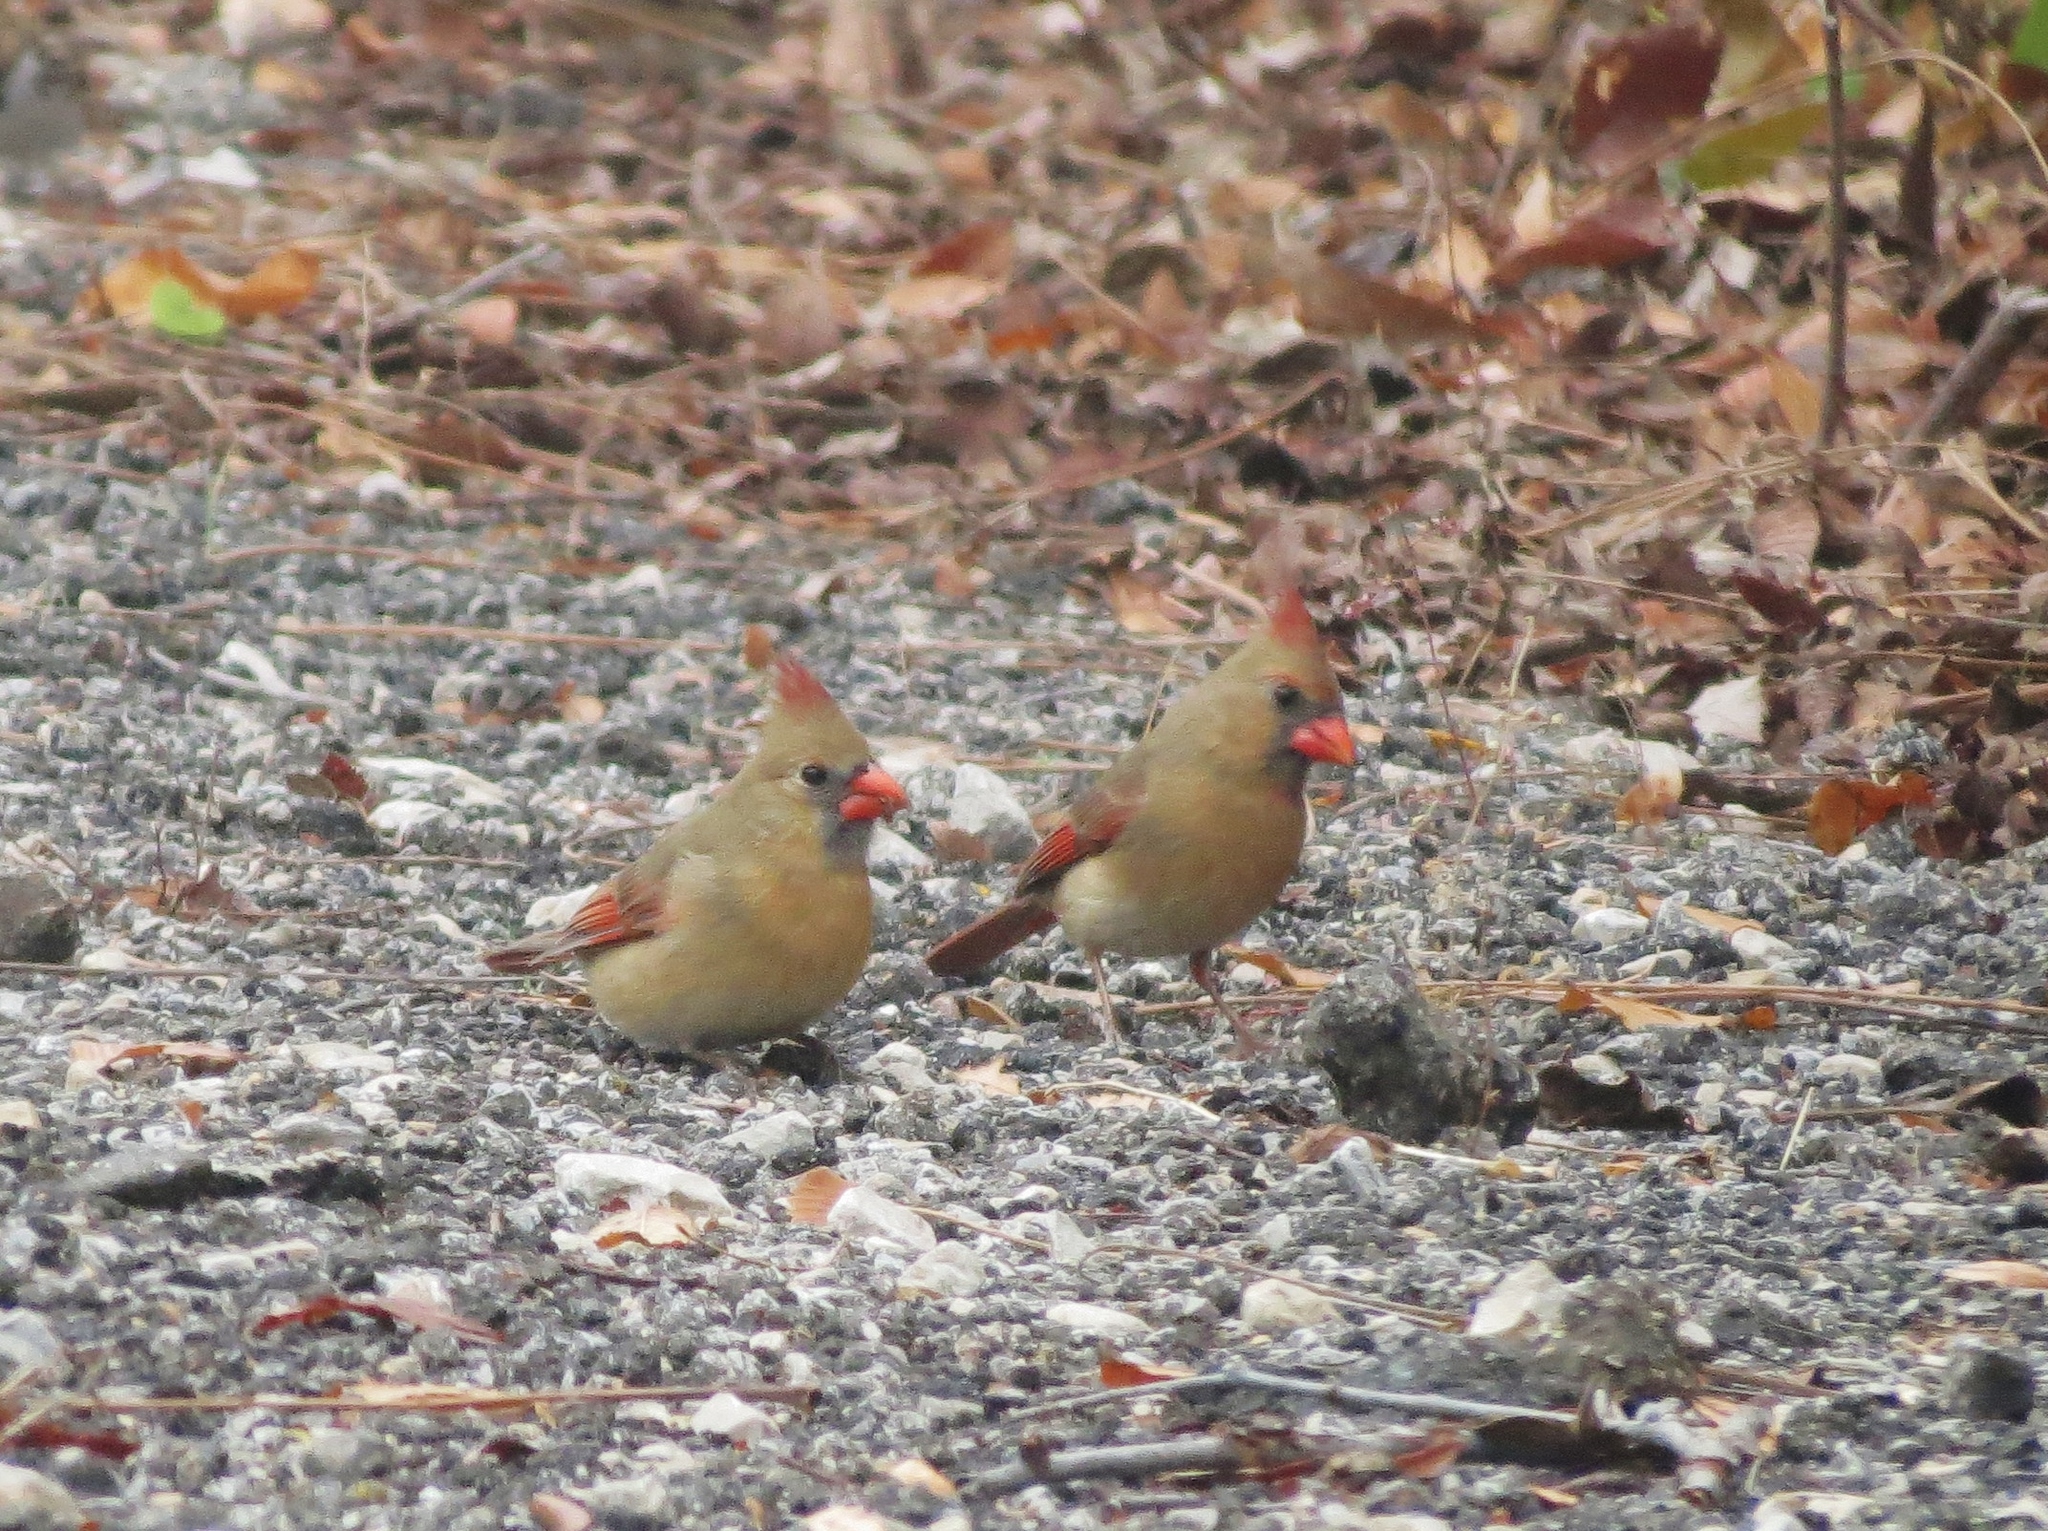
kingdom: Animalia
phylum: Chordata
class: Aves
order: Passeriformes
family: Cardinalidae
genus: Cardinalis
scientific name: Cardinalis cardinalis
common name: Northern cardinal
